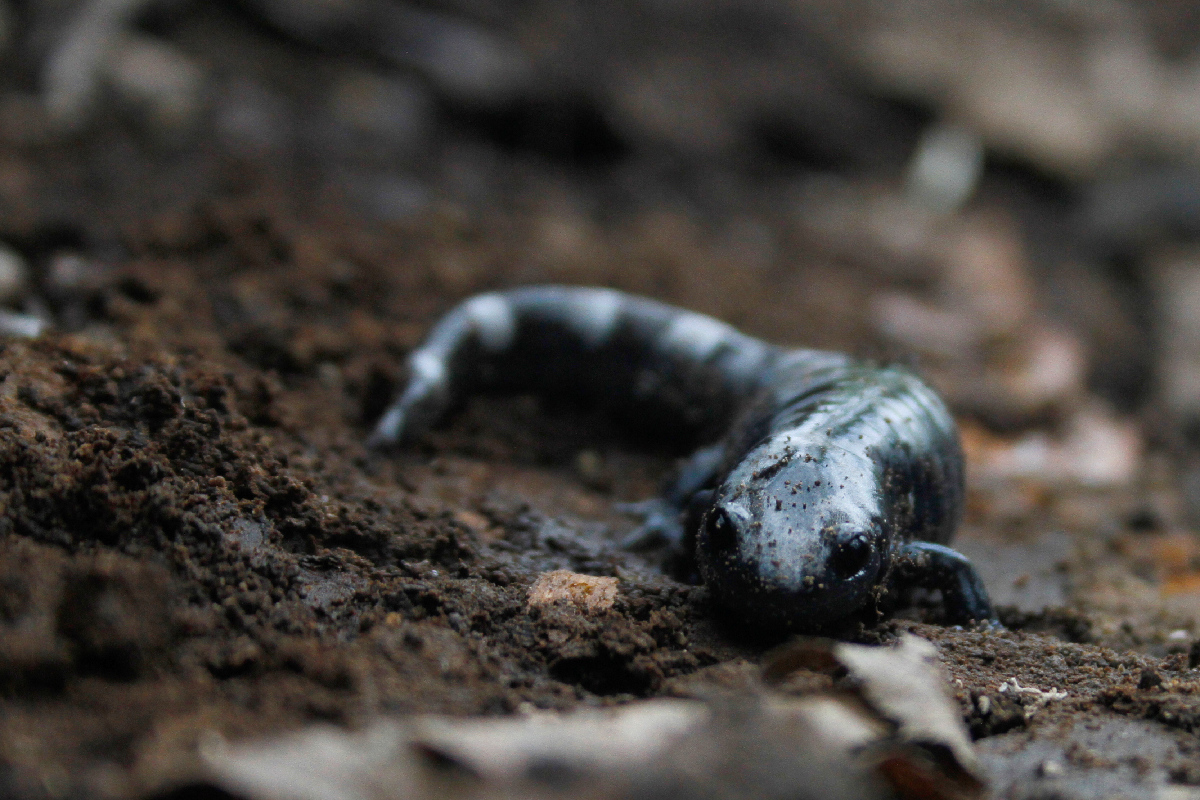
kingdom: Animalia
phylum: Chordata
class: Amphibia
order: Caudata
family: Ambystomatidae
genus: Ambystoma
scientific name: Ambystoma opacum
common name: Marbled salamander
